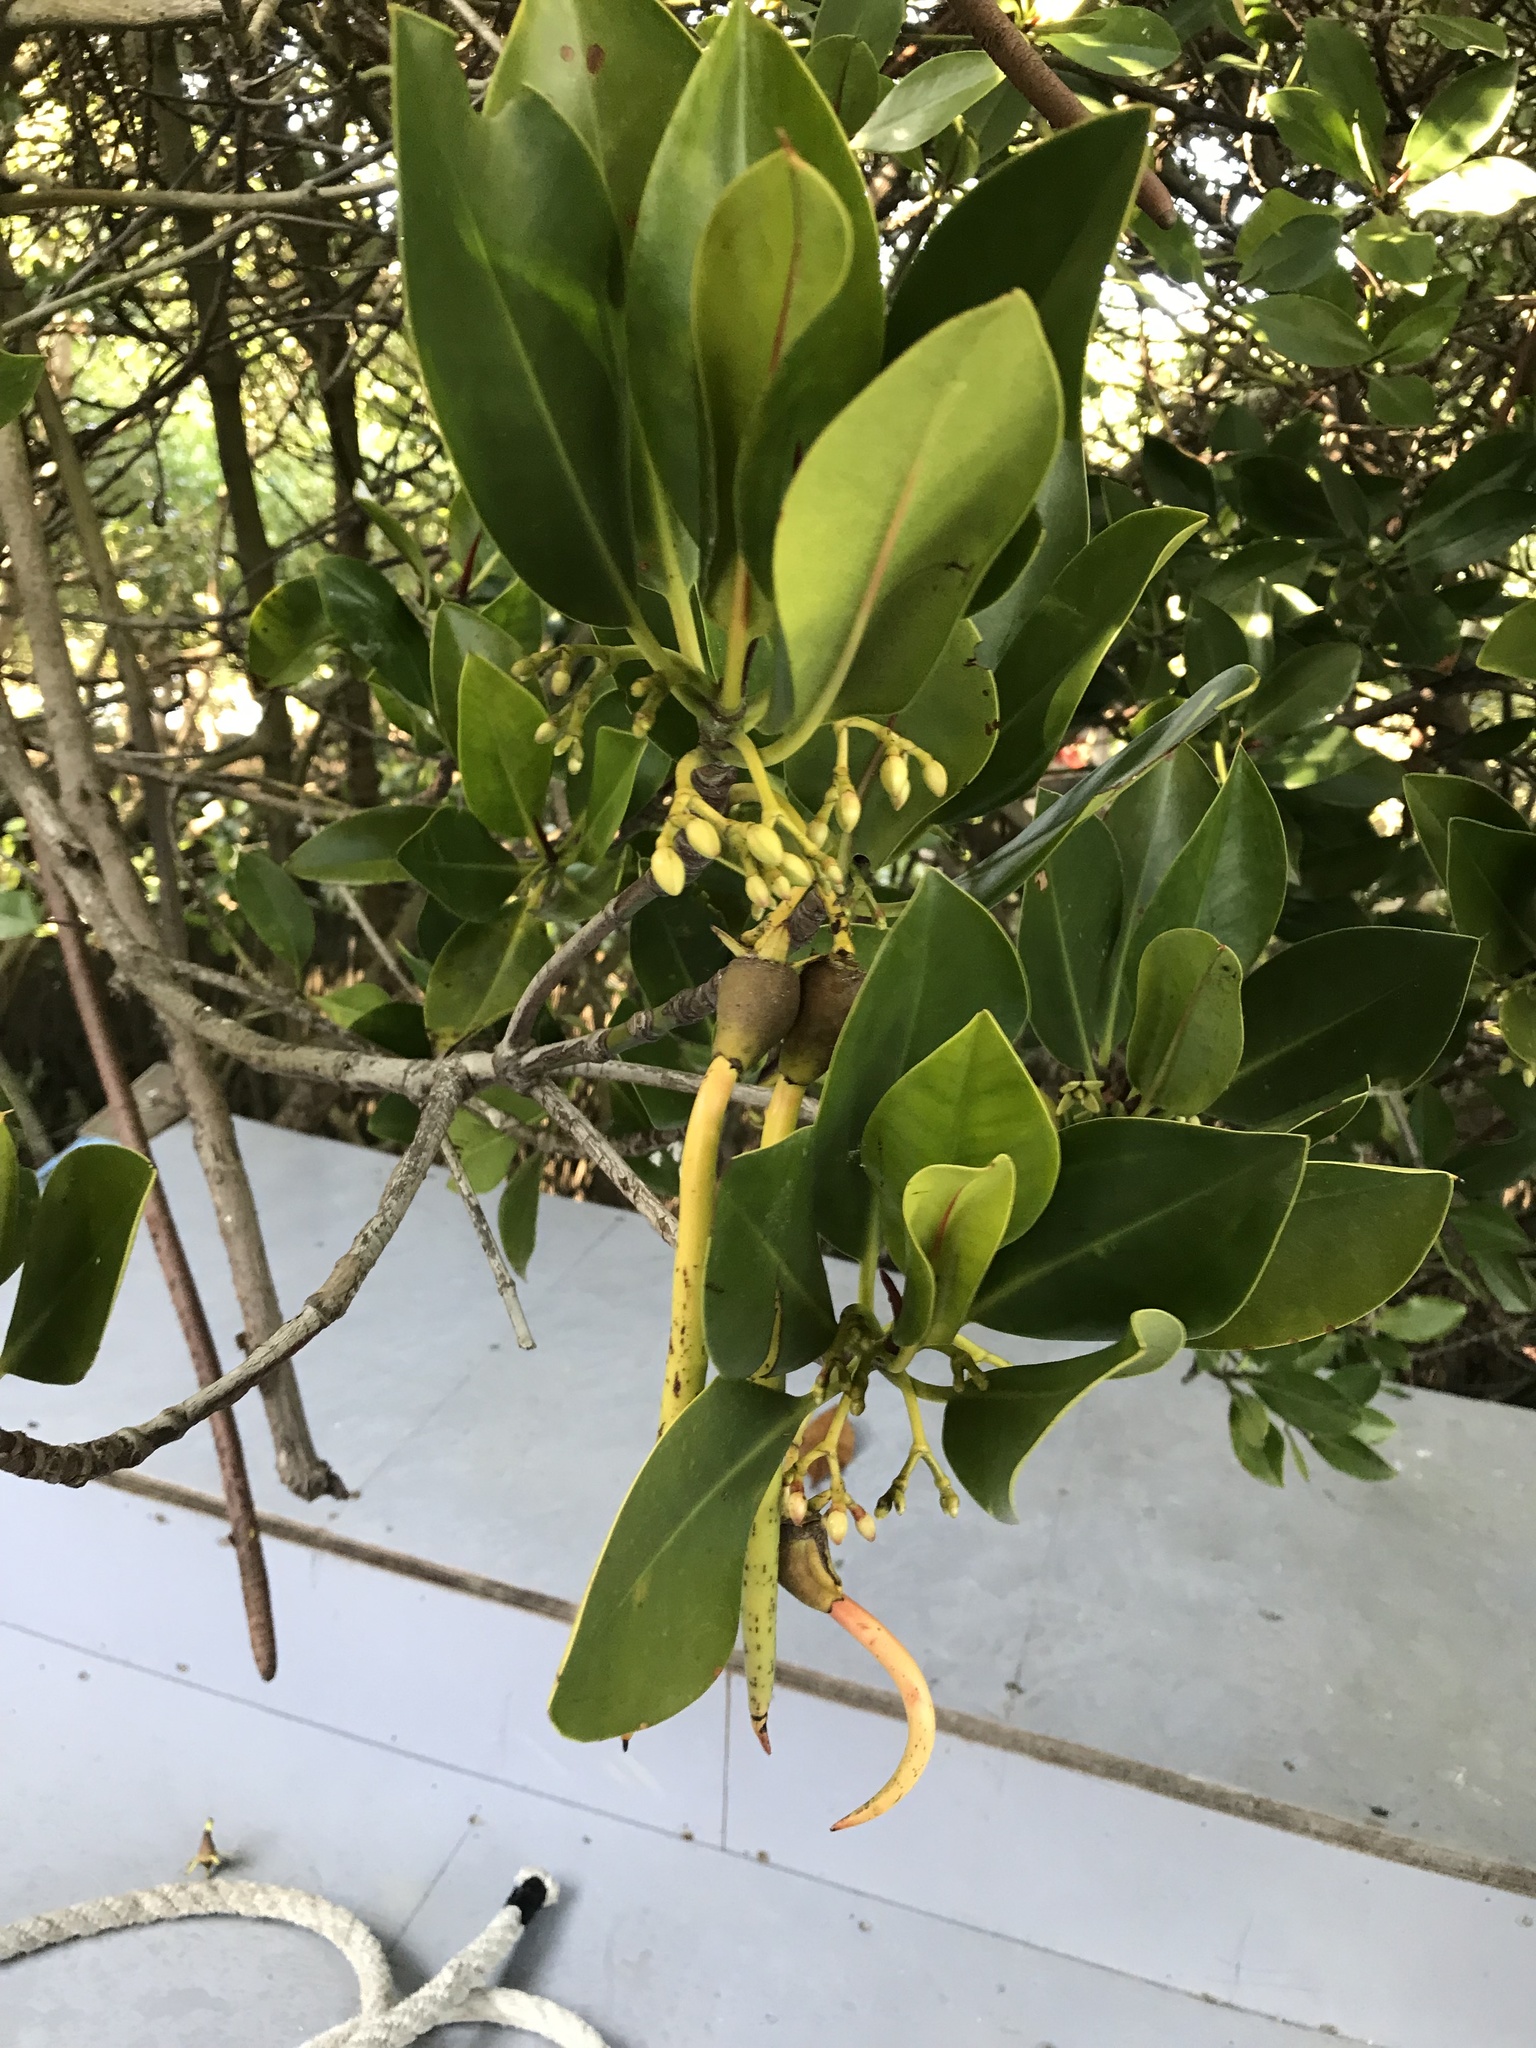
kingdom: Plantae
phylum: Tracheophyta
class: Magnoliopsida
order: Malpighiales
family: Rhizophoraceae
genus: Rhizophora
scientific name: Rhizophora stylosa
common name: Red mangrove
